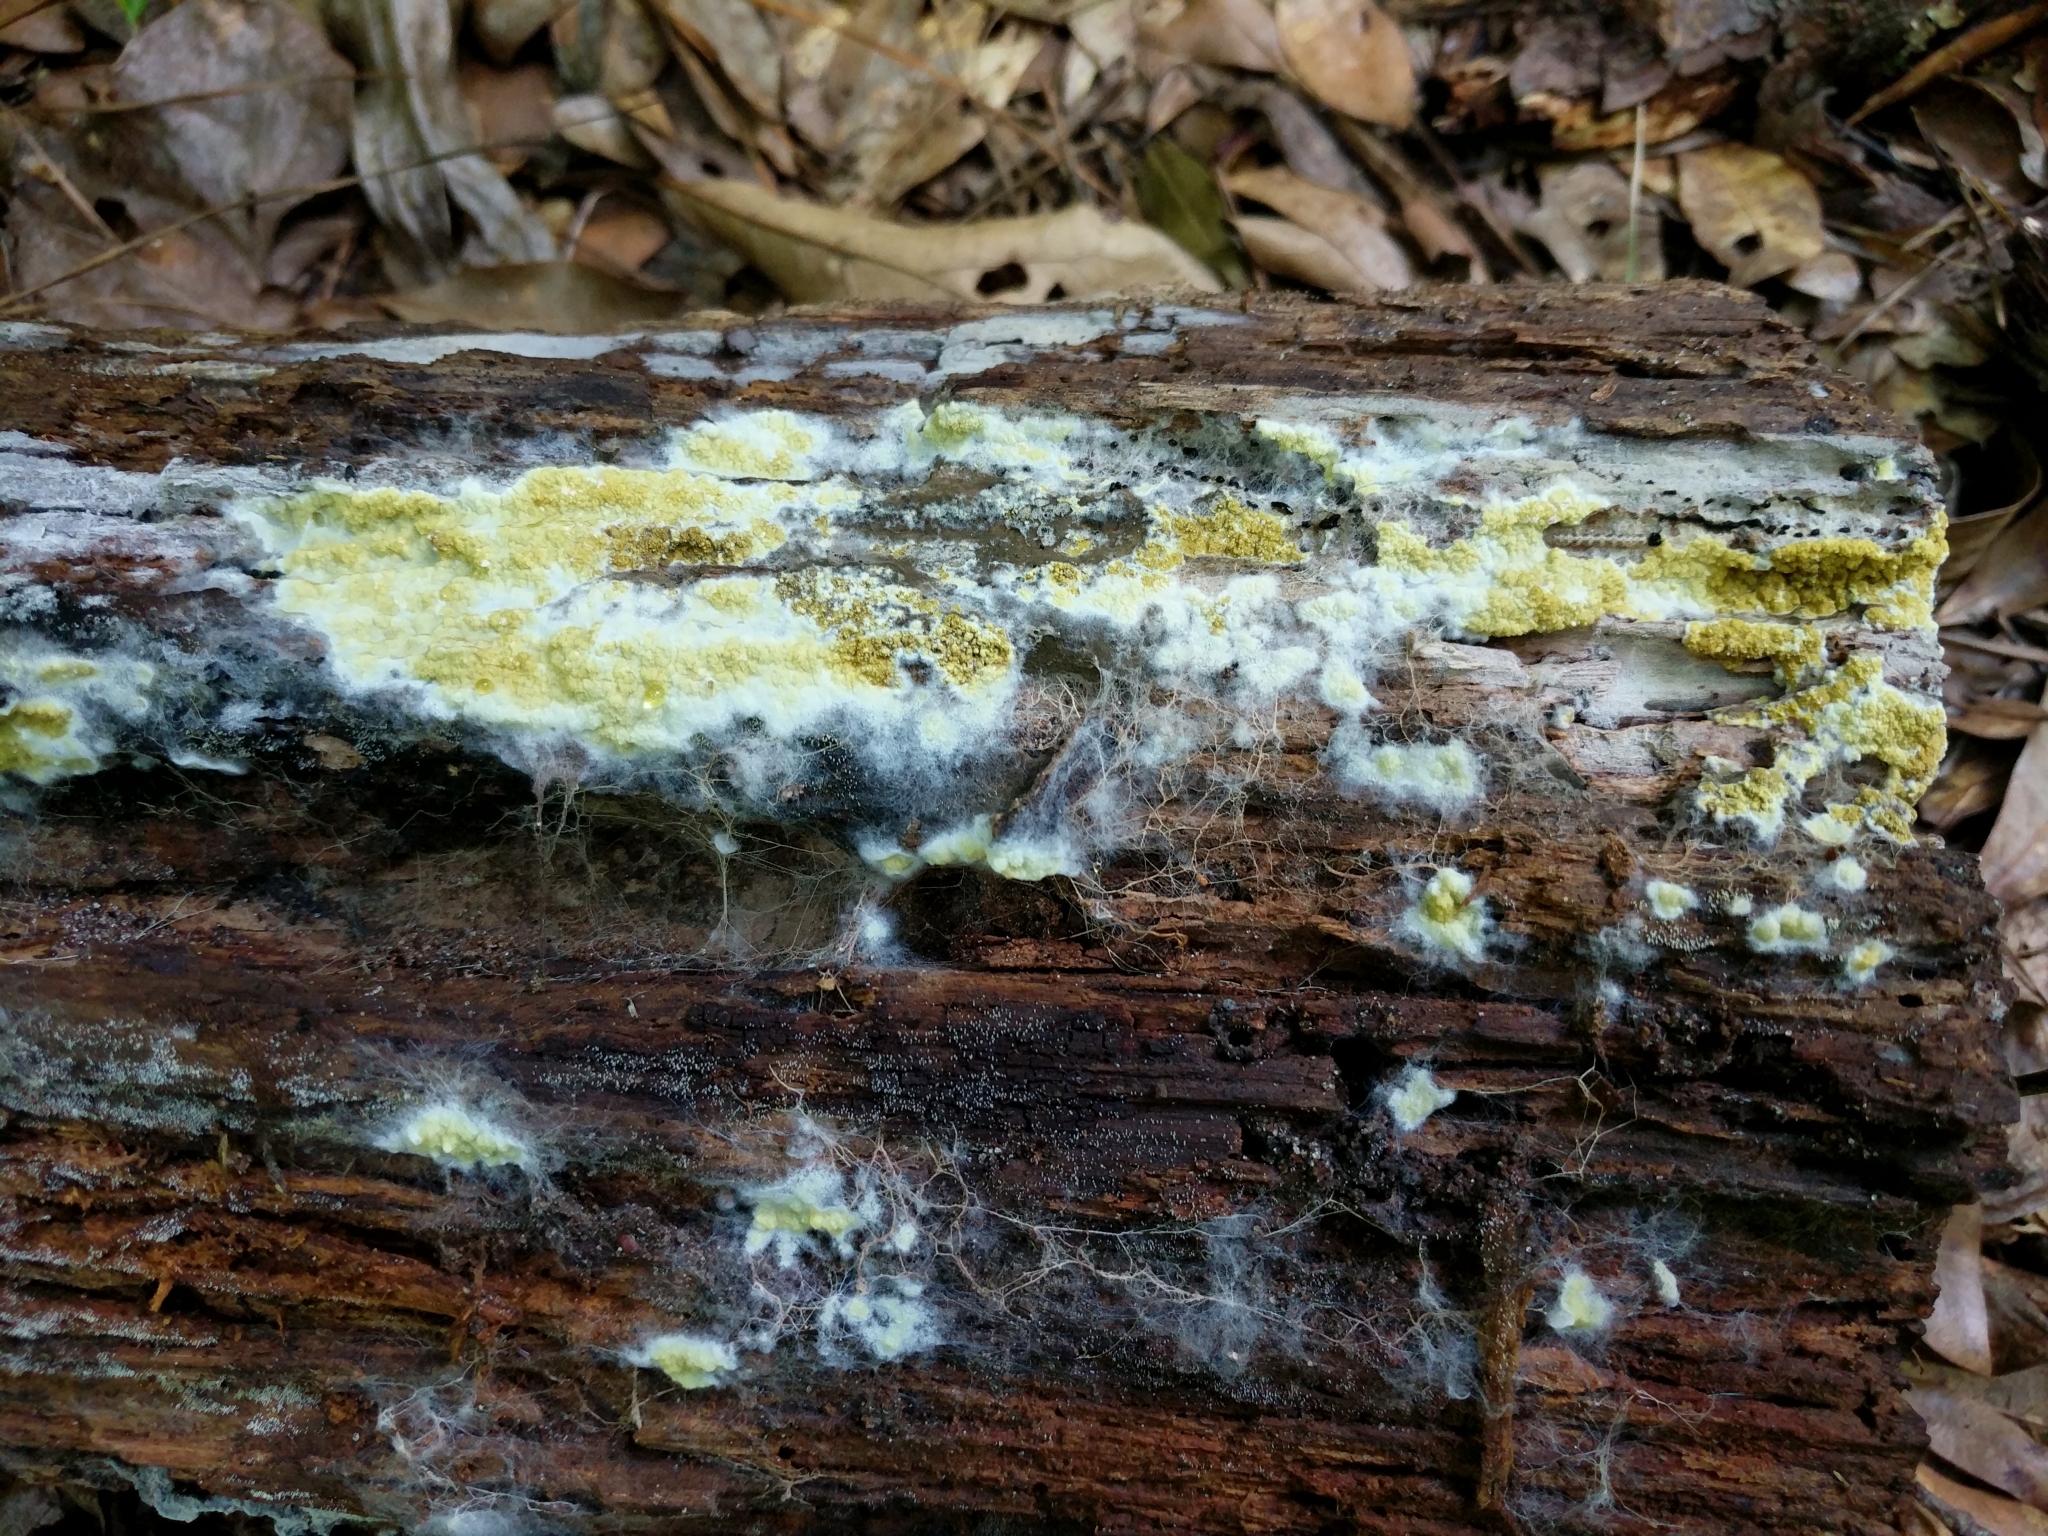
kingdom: Fungi
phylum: Basidiomycota
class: Agaricomycetes
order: Boletales
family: Coniophoraceae
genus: Penttilamyces
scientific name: Penttilamyces olivascens
